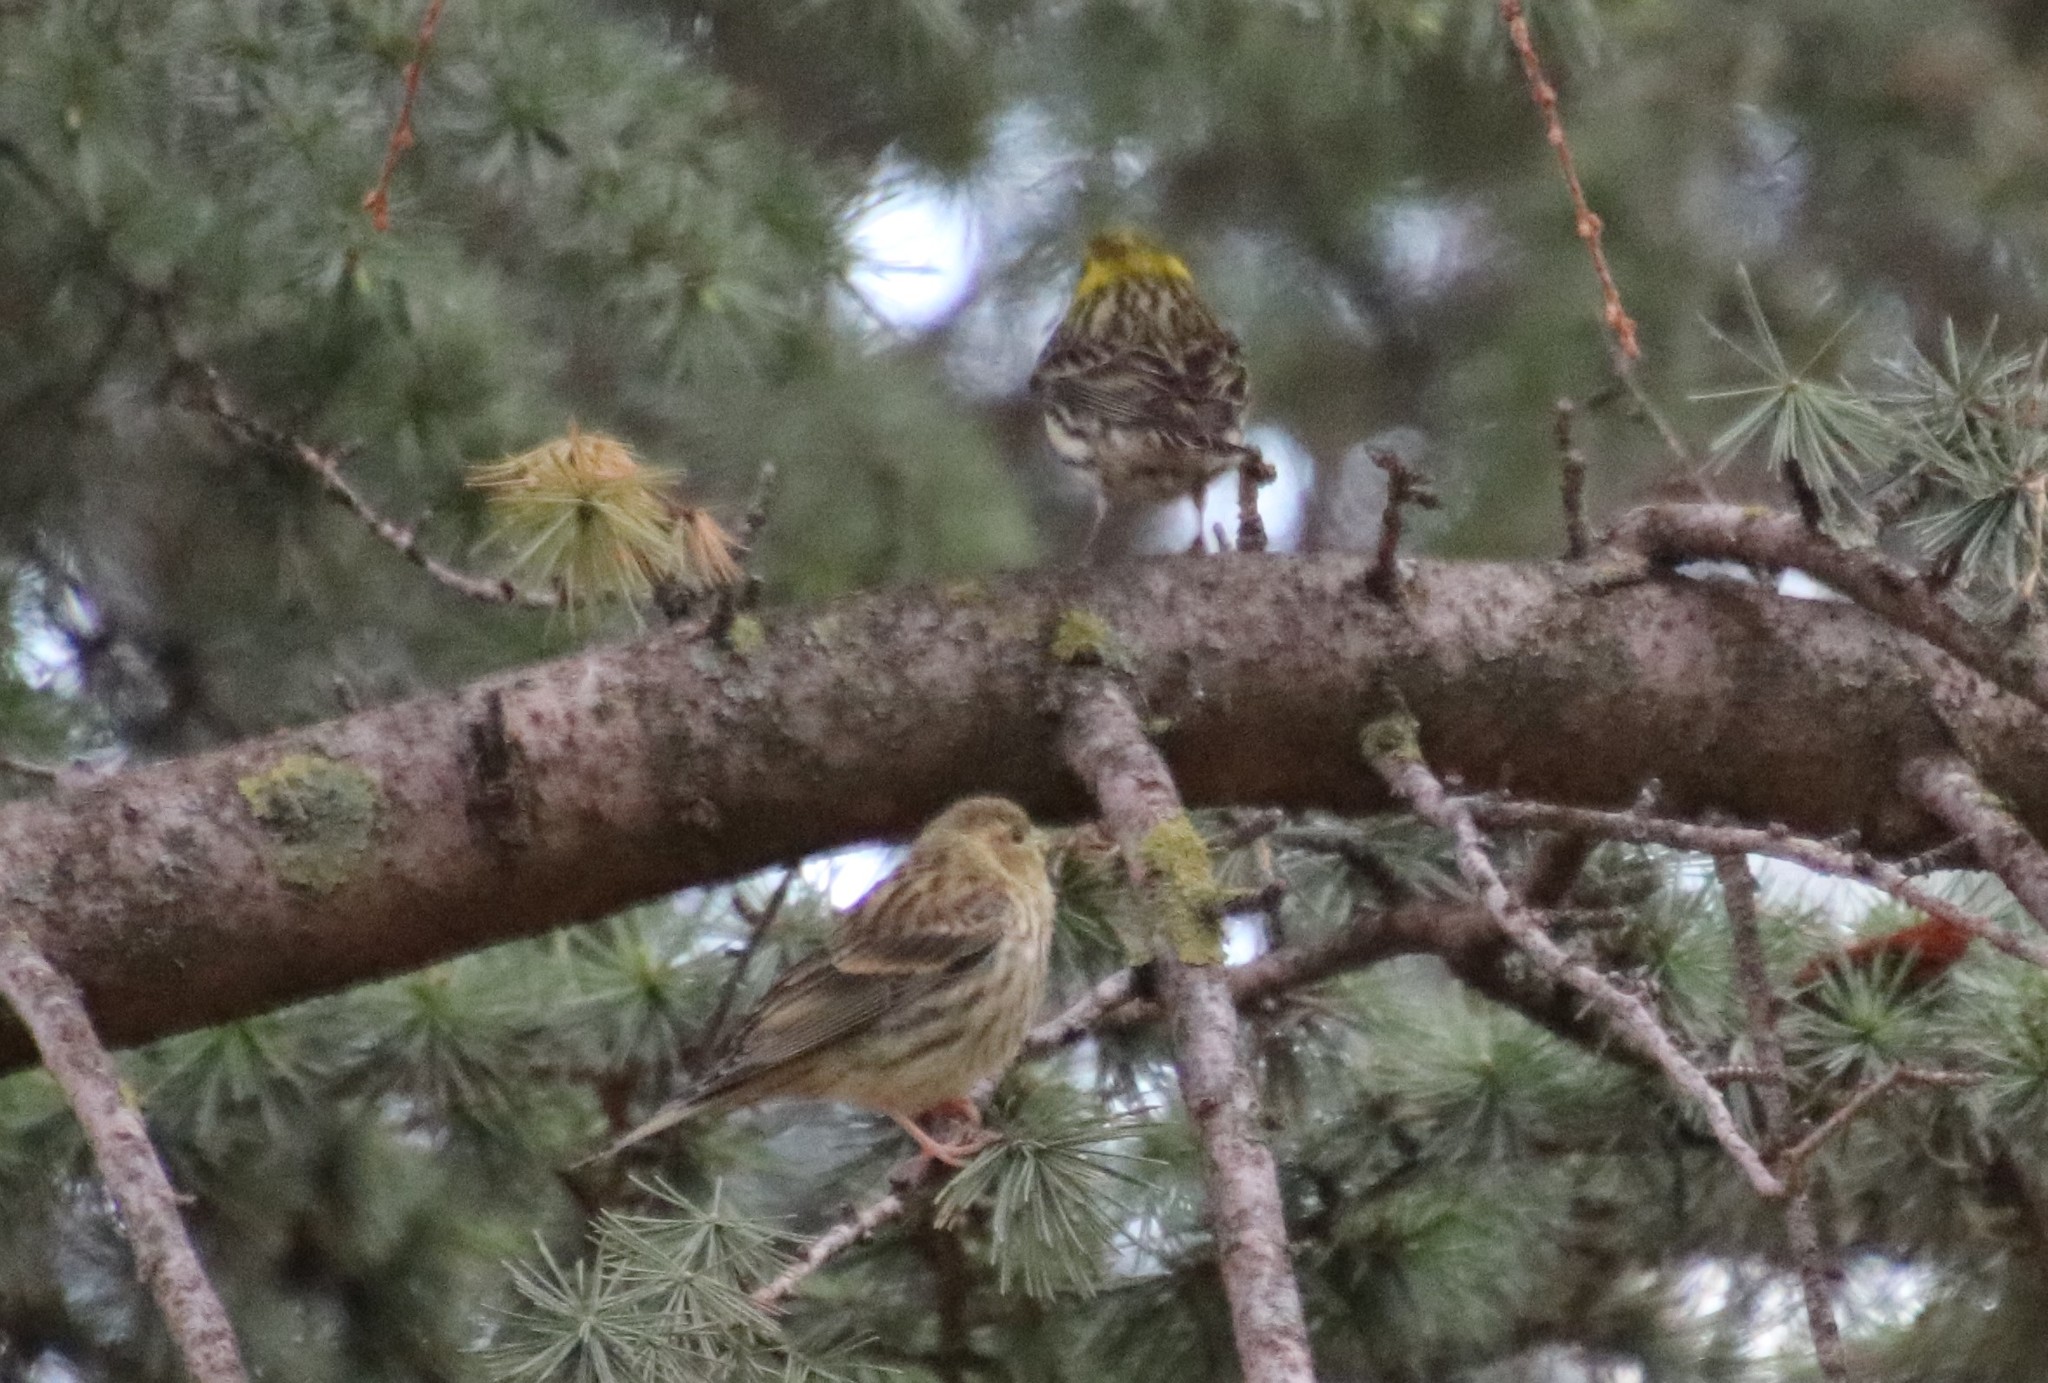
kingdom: Animalia
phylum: Chordata
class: Aves
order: Passeriformes
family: Fringillidae
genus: Serinus
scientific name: Serinus serinus
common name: European serin
